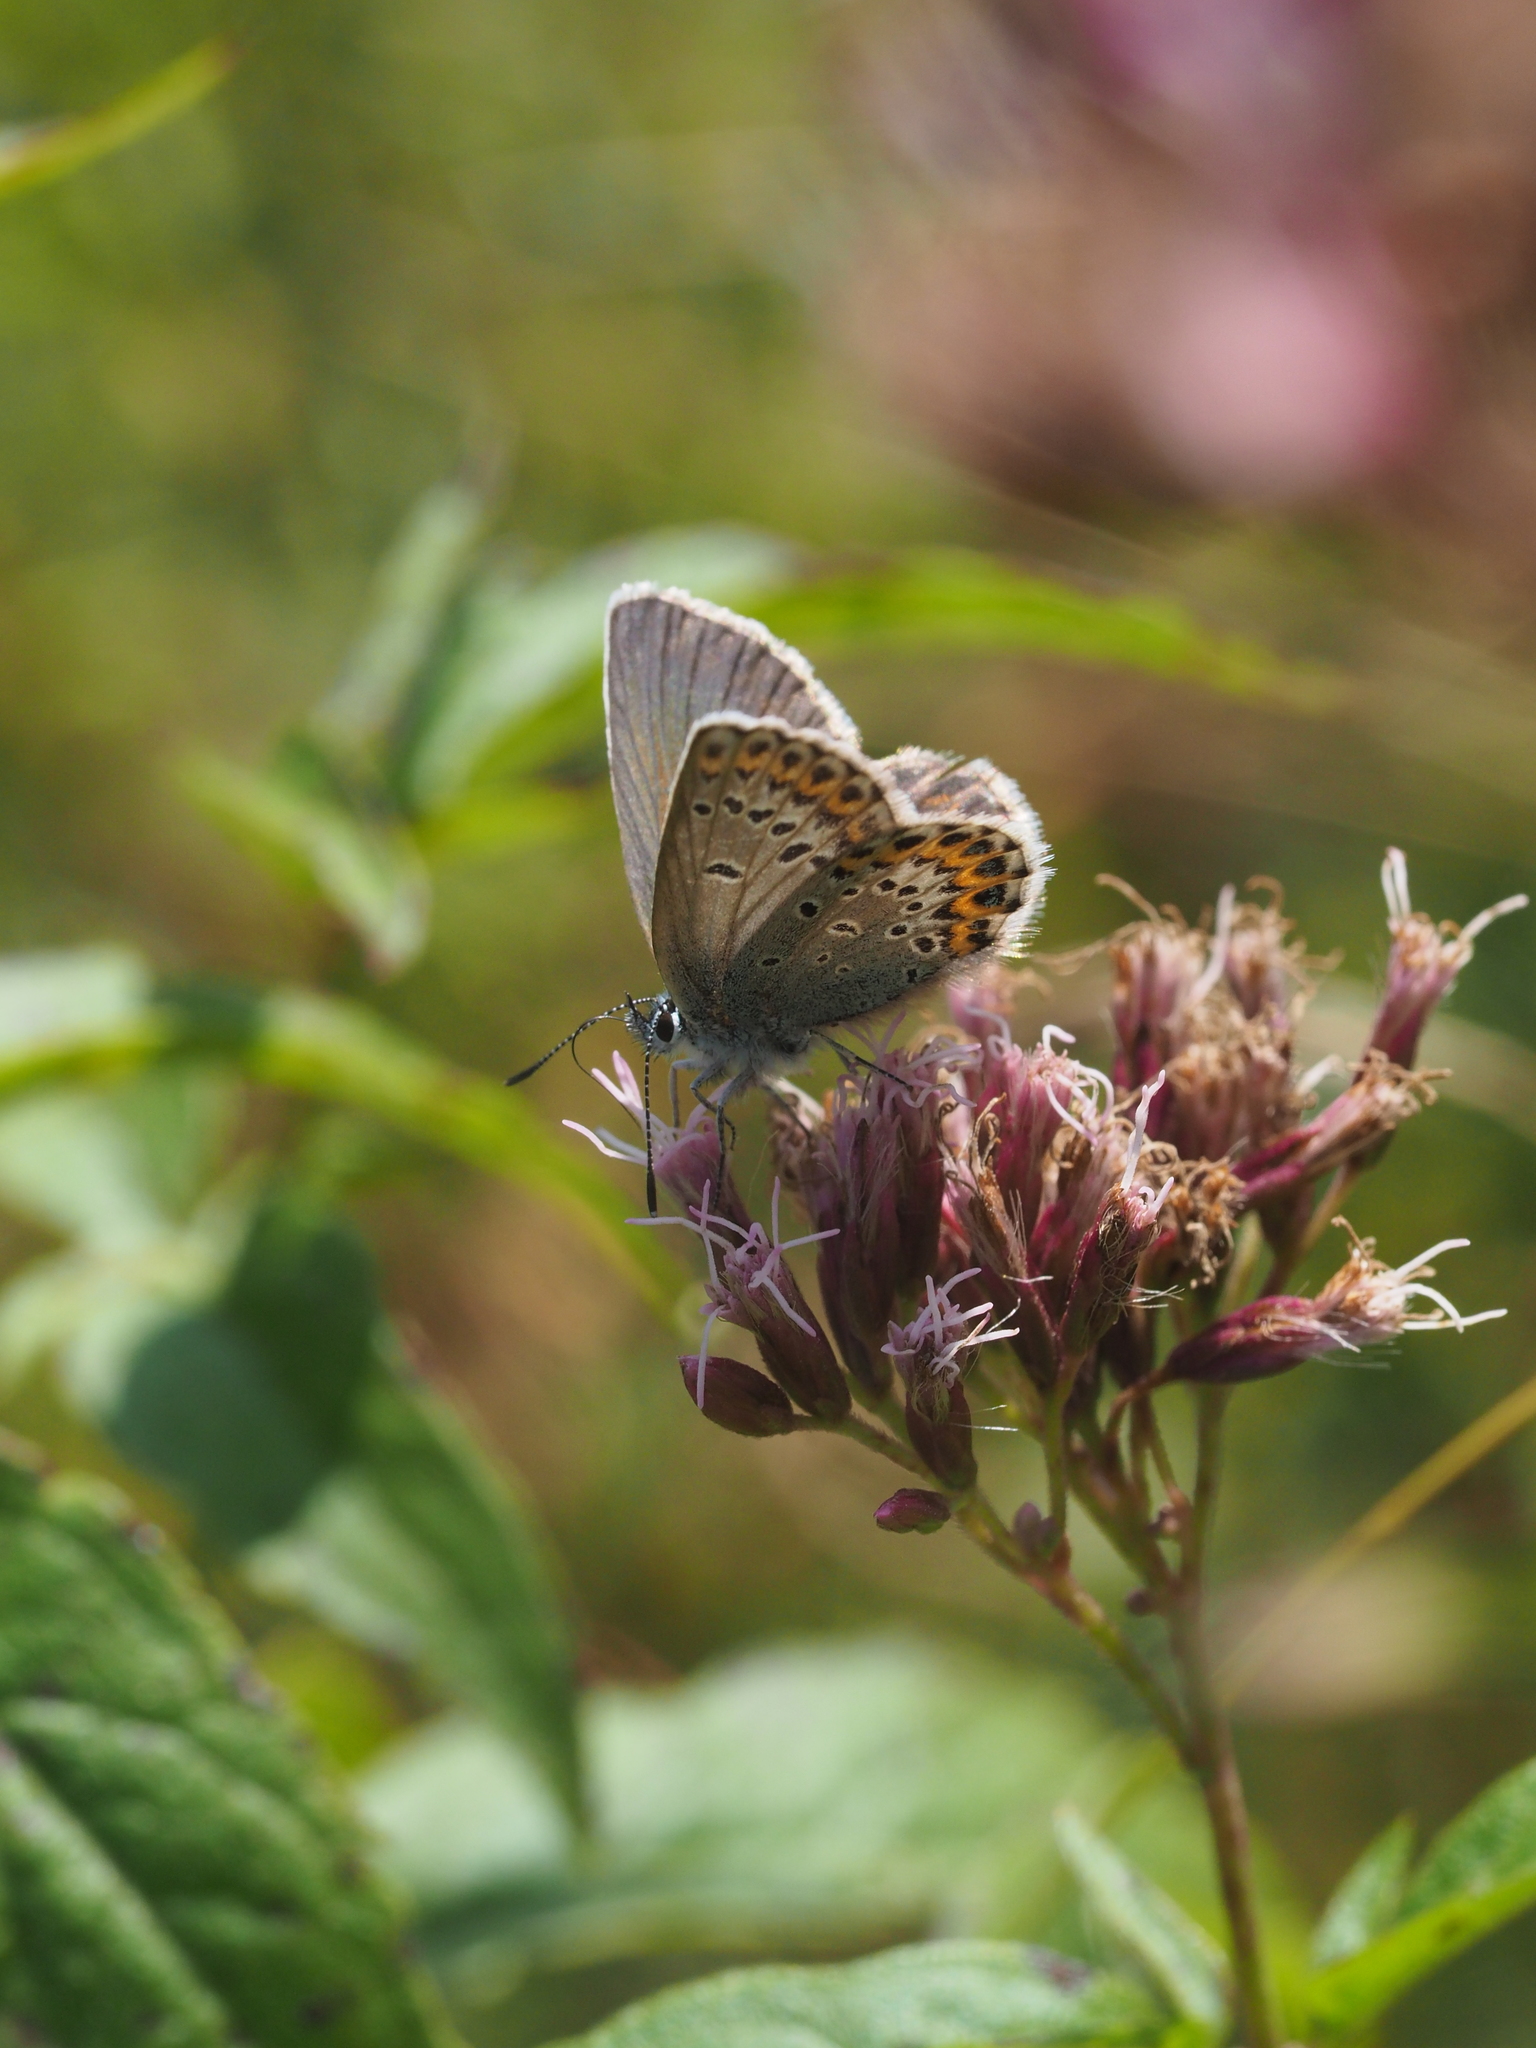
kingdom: Animalia
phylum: Arthropoda
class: Insecta
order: Lepidoptera
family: Lycaenidae
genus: Lycaeides
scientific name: Lycaeides idas
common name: Northern blue
